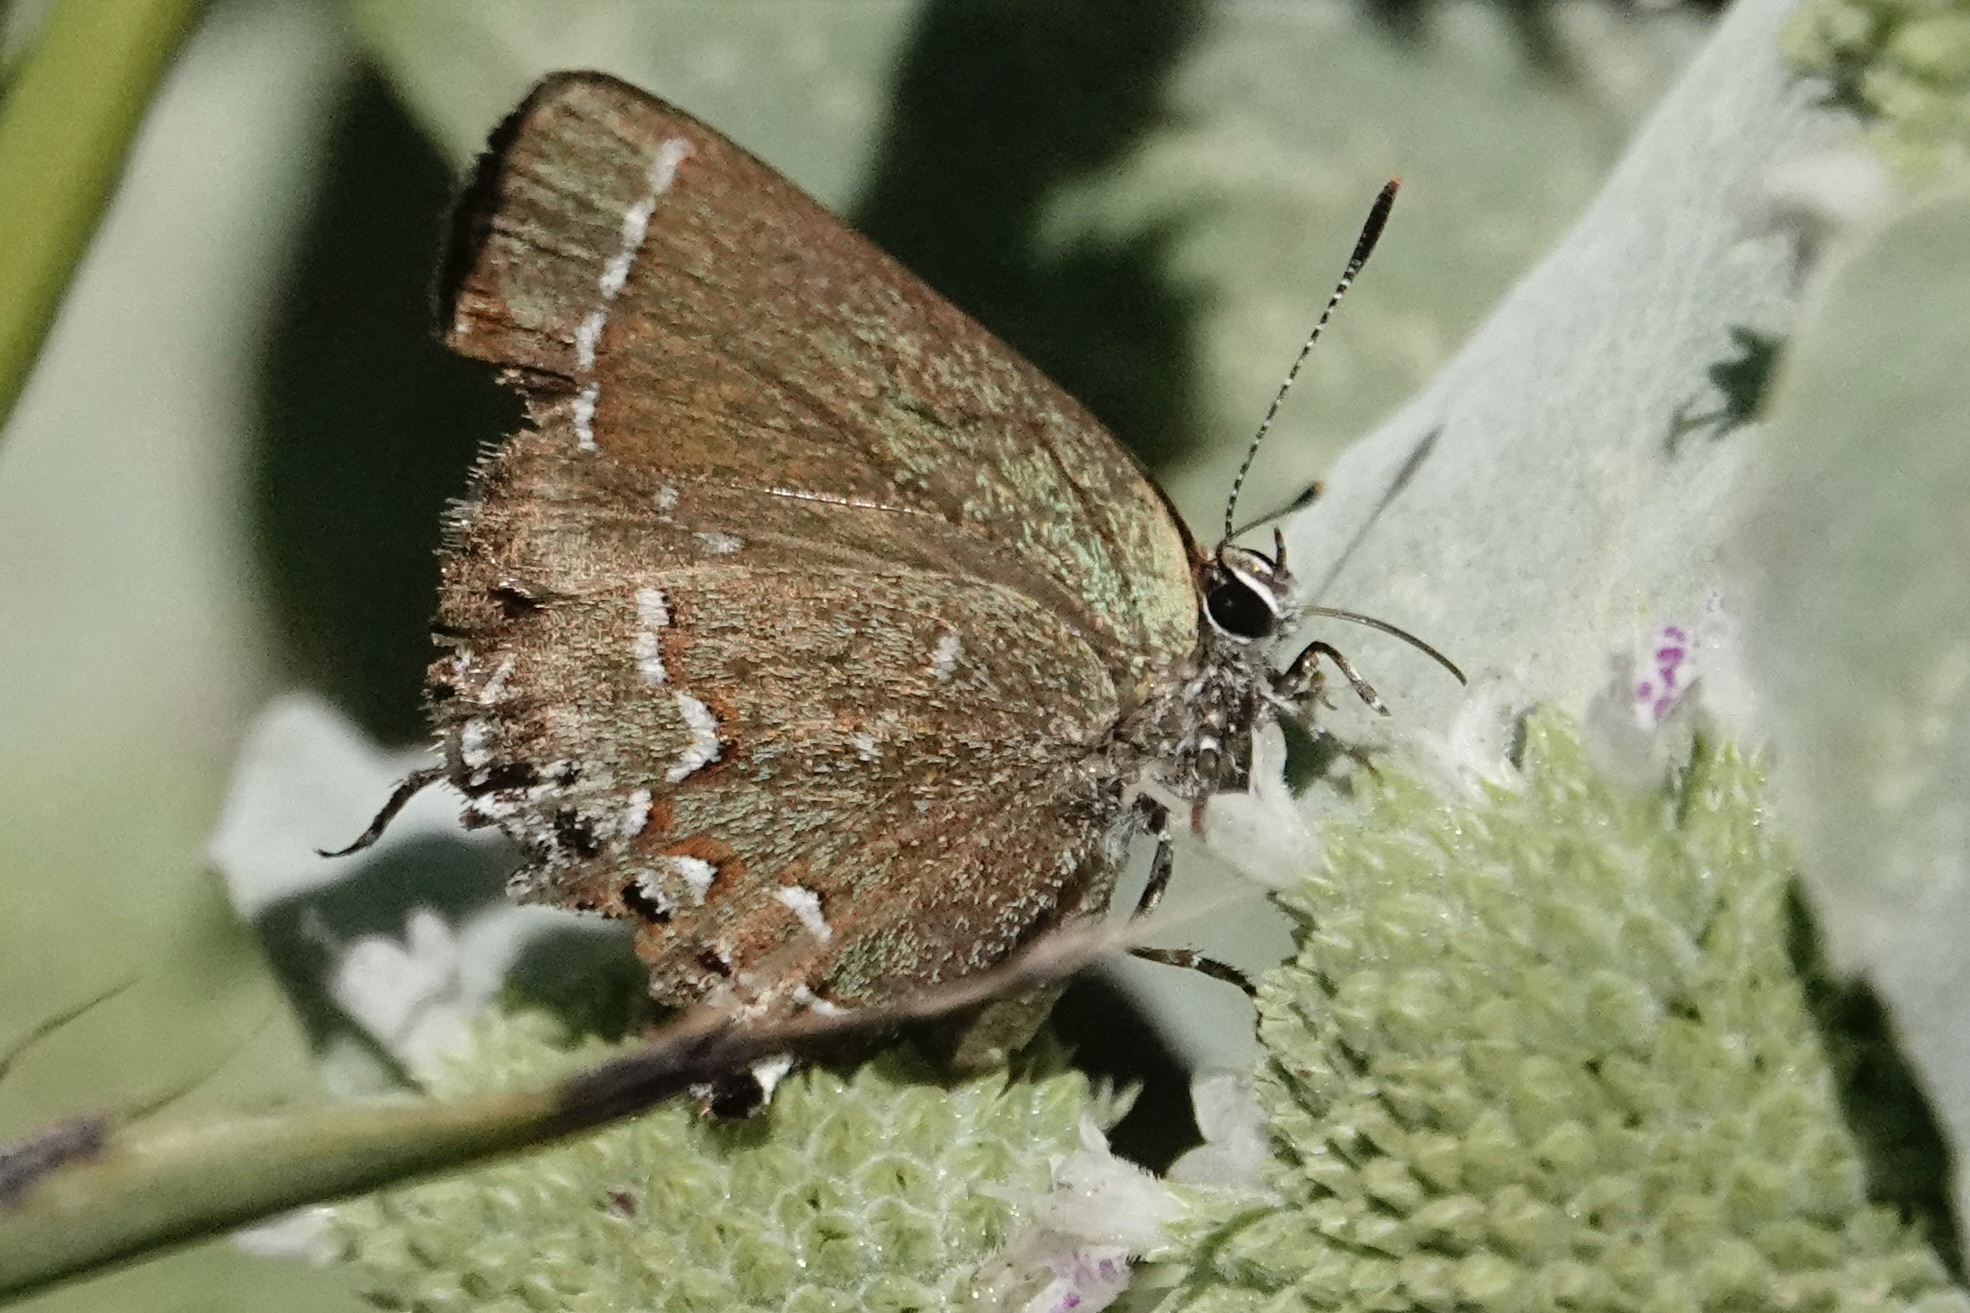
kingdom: Animalia
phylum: Arthropoda
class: Insecta
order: Lepidoptera
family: Lycaenidae
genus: Mitoura
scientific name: Mitoura gryneus
